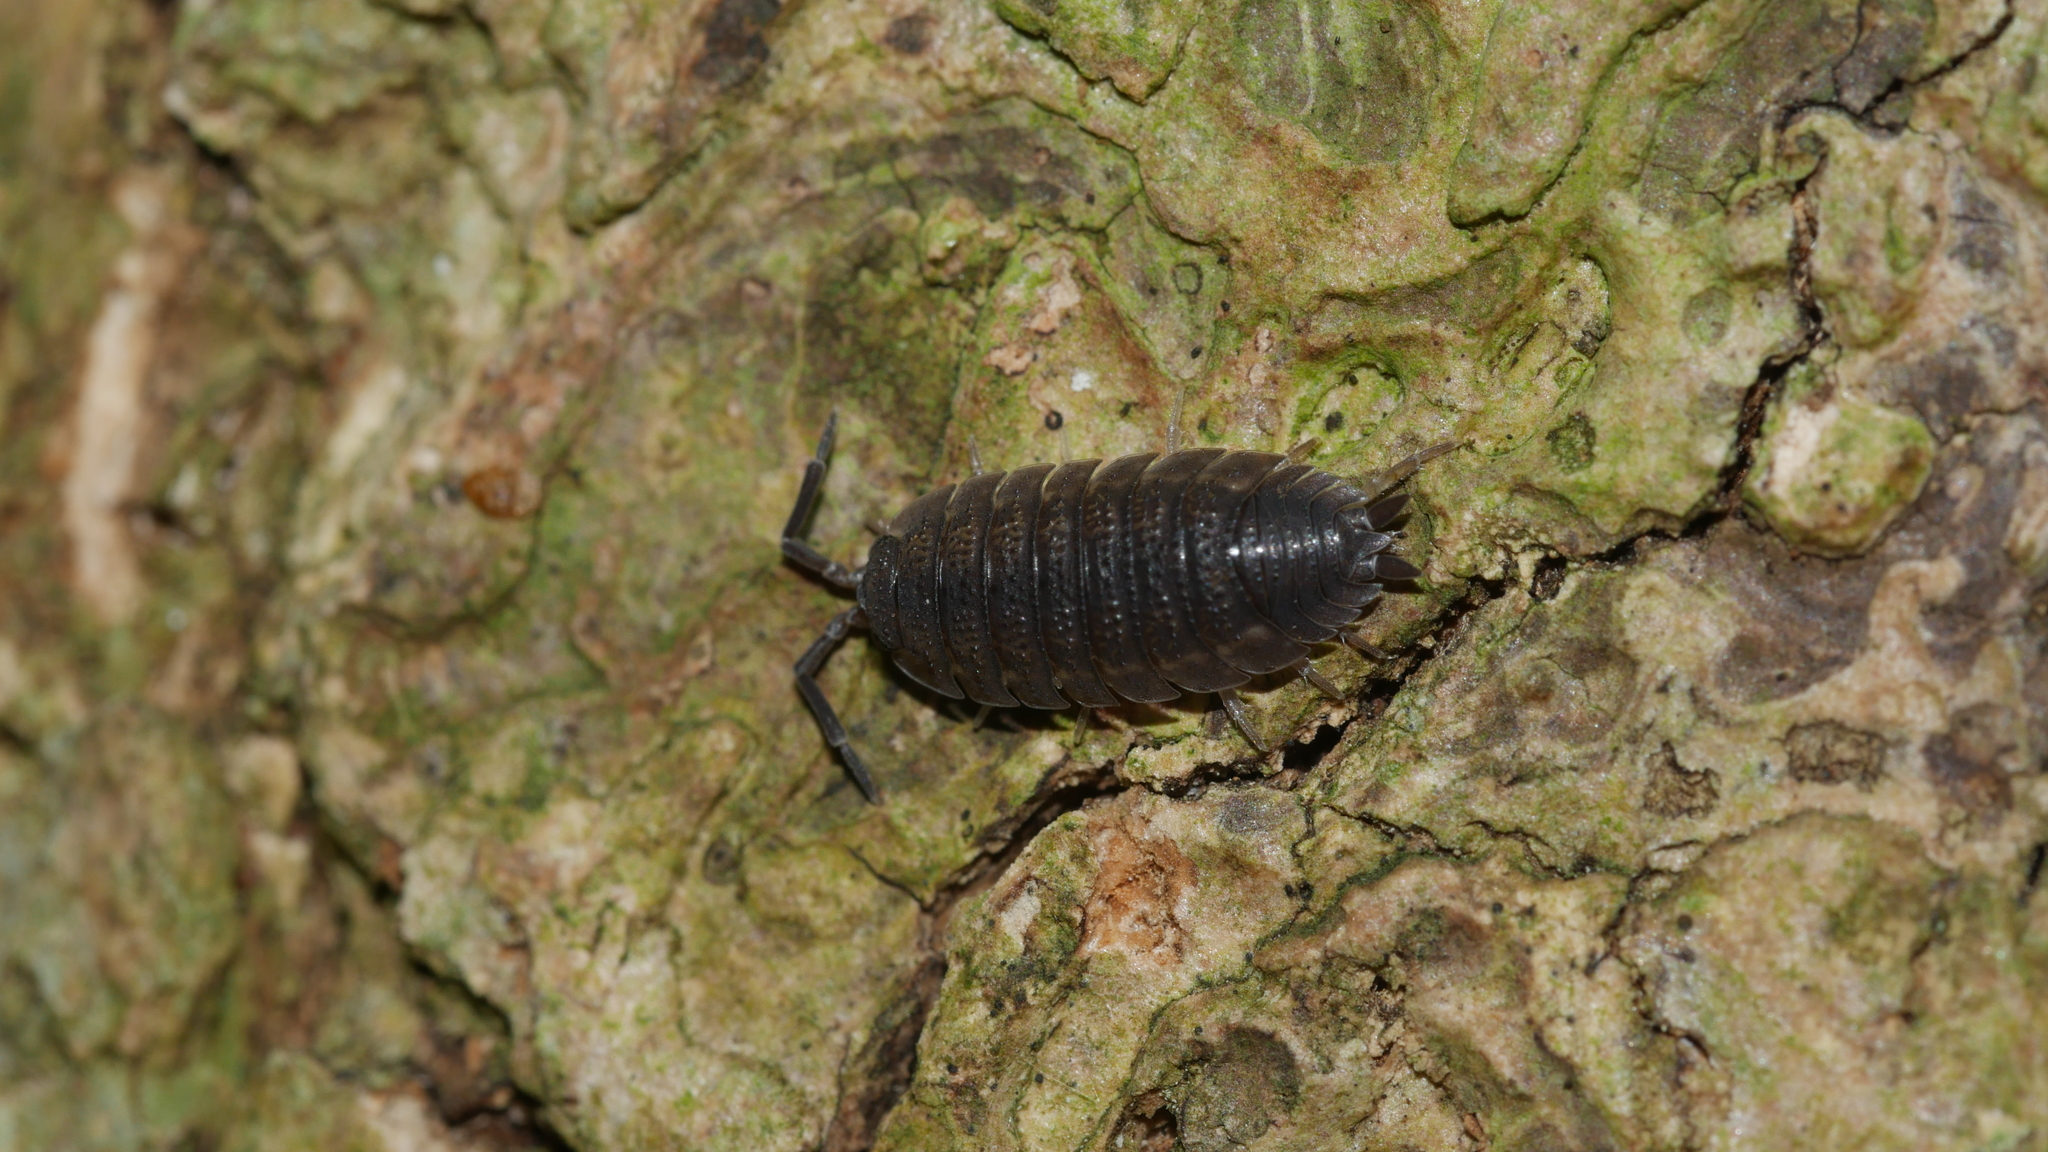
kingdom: Animalia
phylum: Arthropoda
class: Malacostraca
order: Isopoda
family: Porcellionidae
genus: Porcellio
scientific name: Porcellio scaber
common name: Common rough woodlouse
